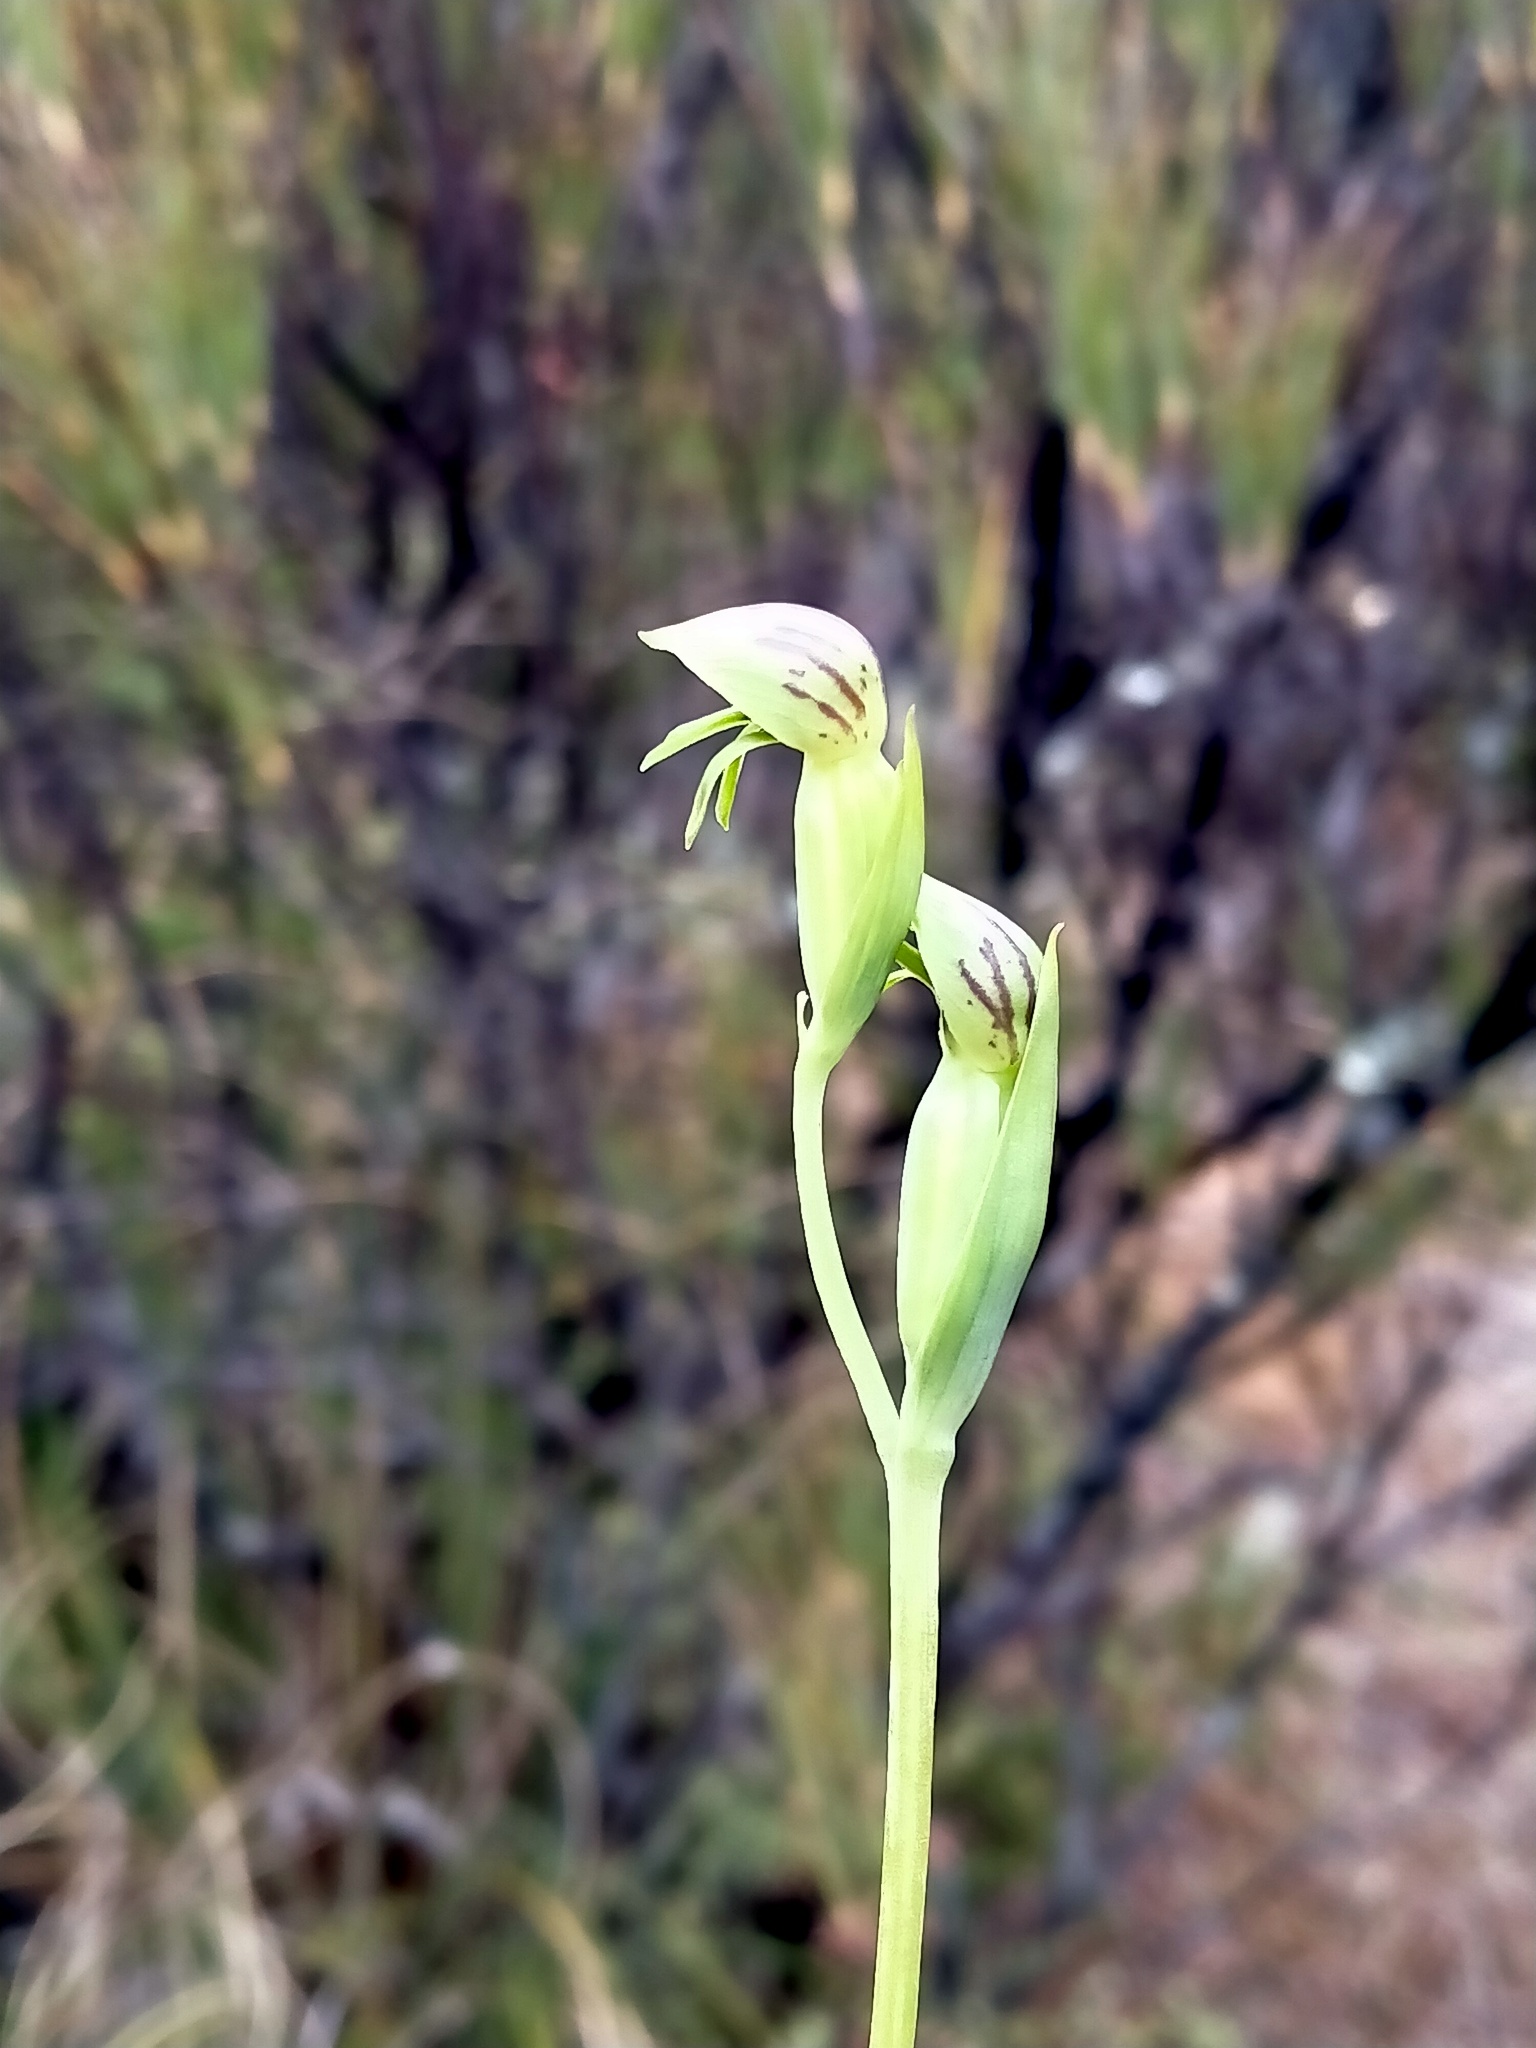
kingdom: Plantae
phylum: Tracheophyta
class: Liliopsida
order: Asparagales
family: Orchidaceae
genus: Waireia
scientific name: Waireia stenopetala
